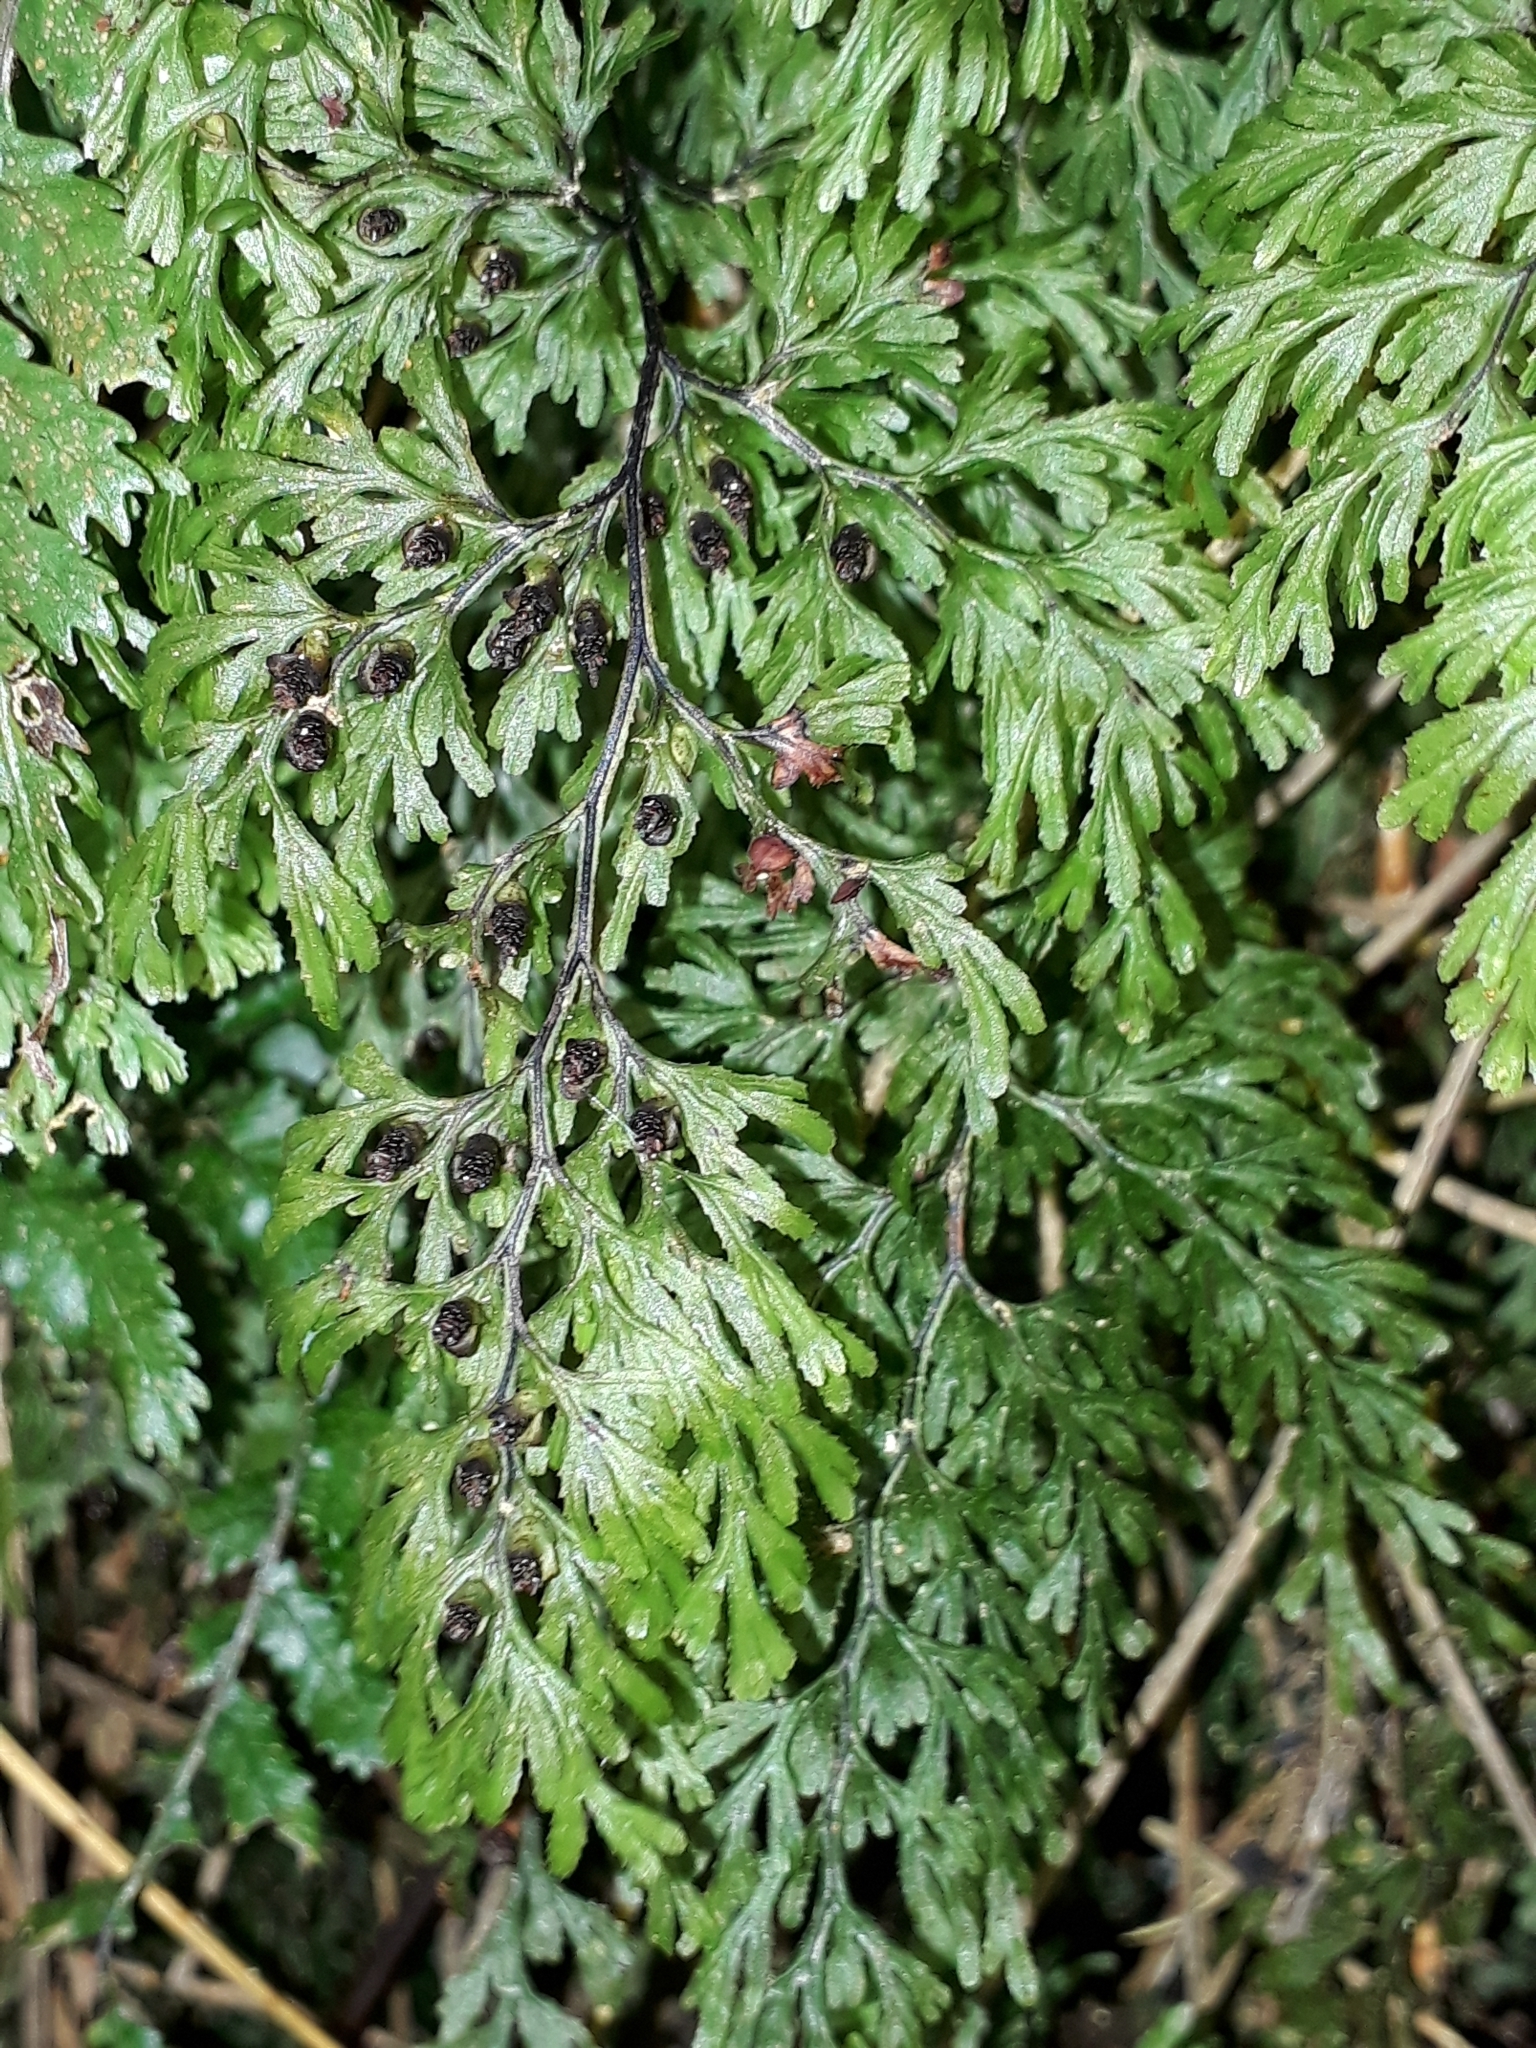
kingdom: Plantae
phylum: Tracheophyta
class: Polypodiopsida
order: Hymenophyllales
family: Hymenophyllaceae
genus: Hymenophyllum
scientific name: Hymenophyllum bivalve
